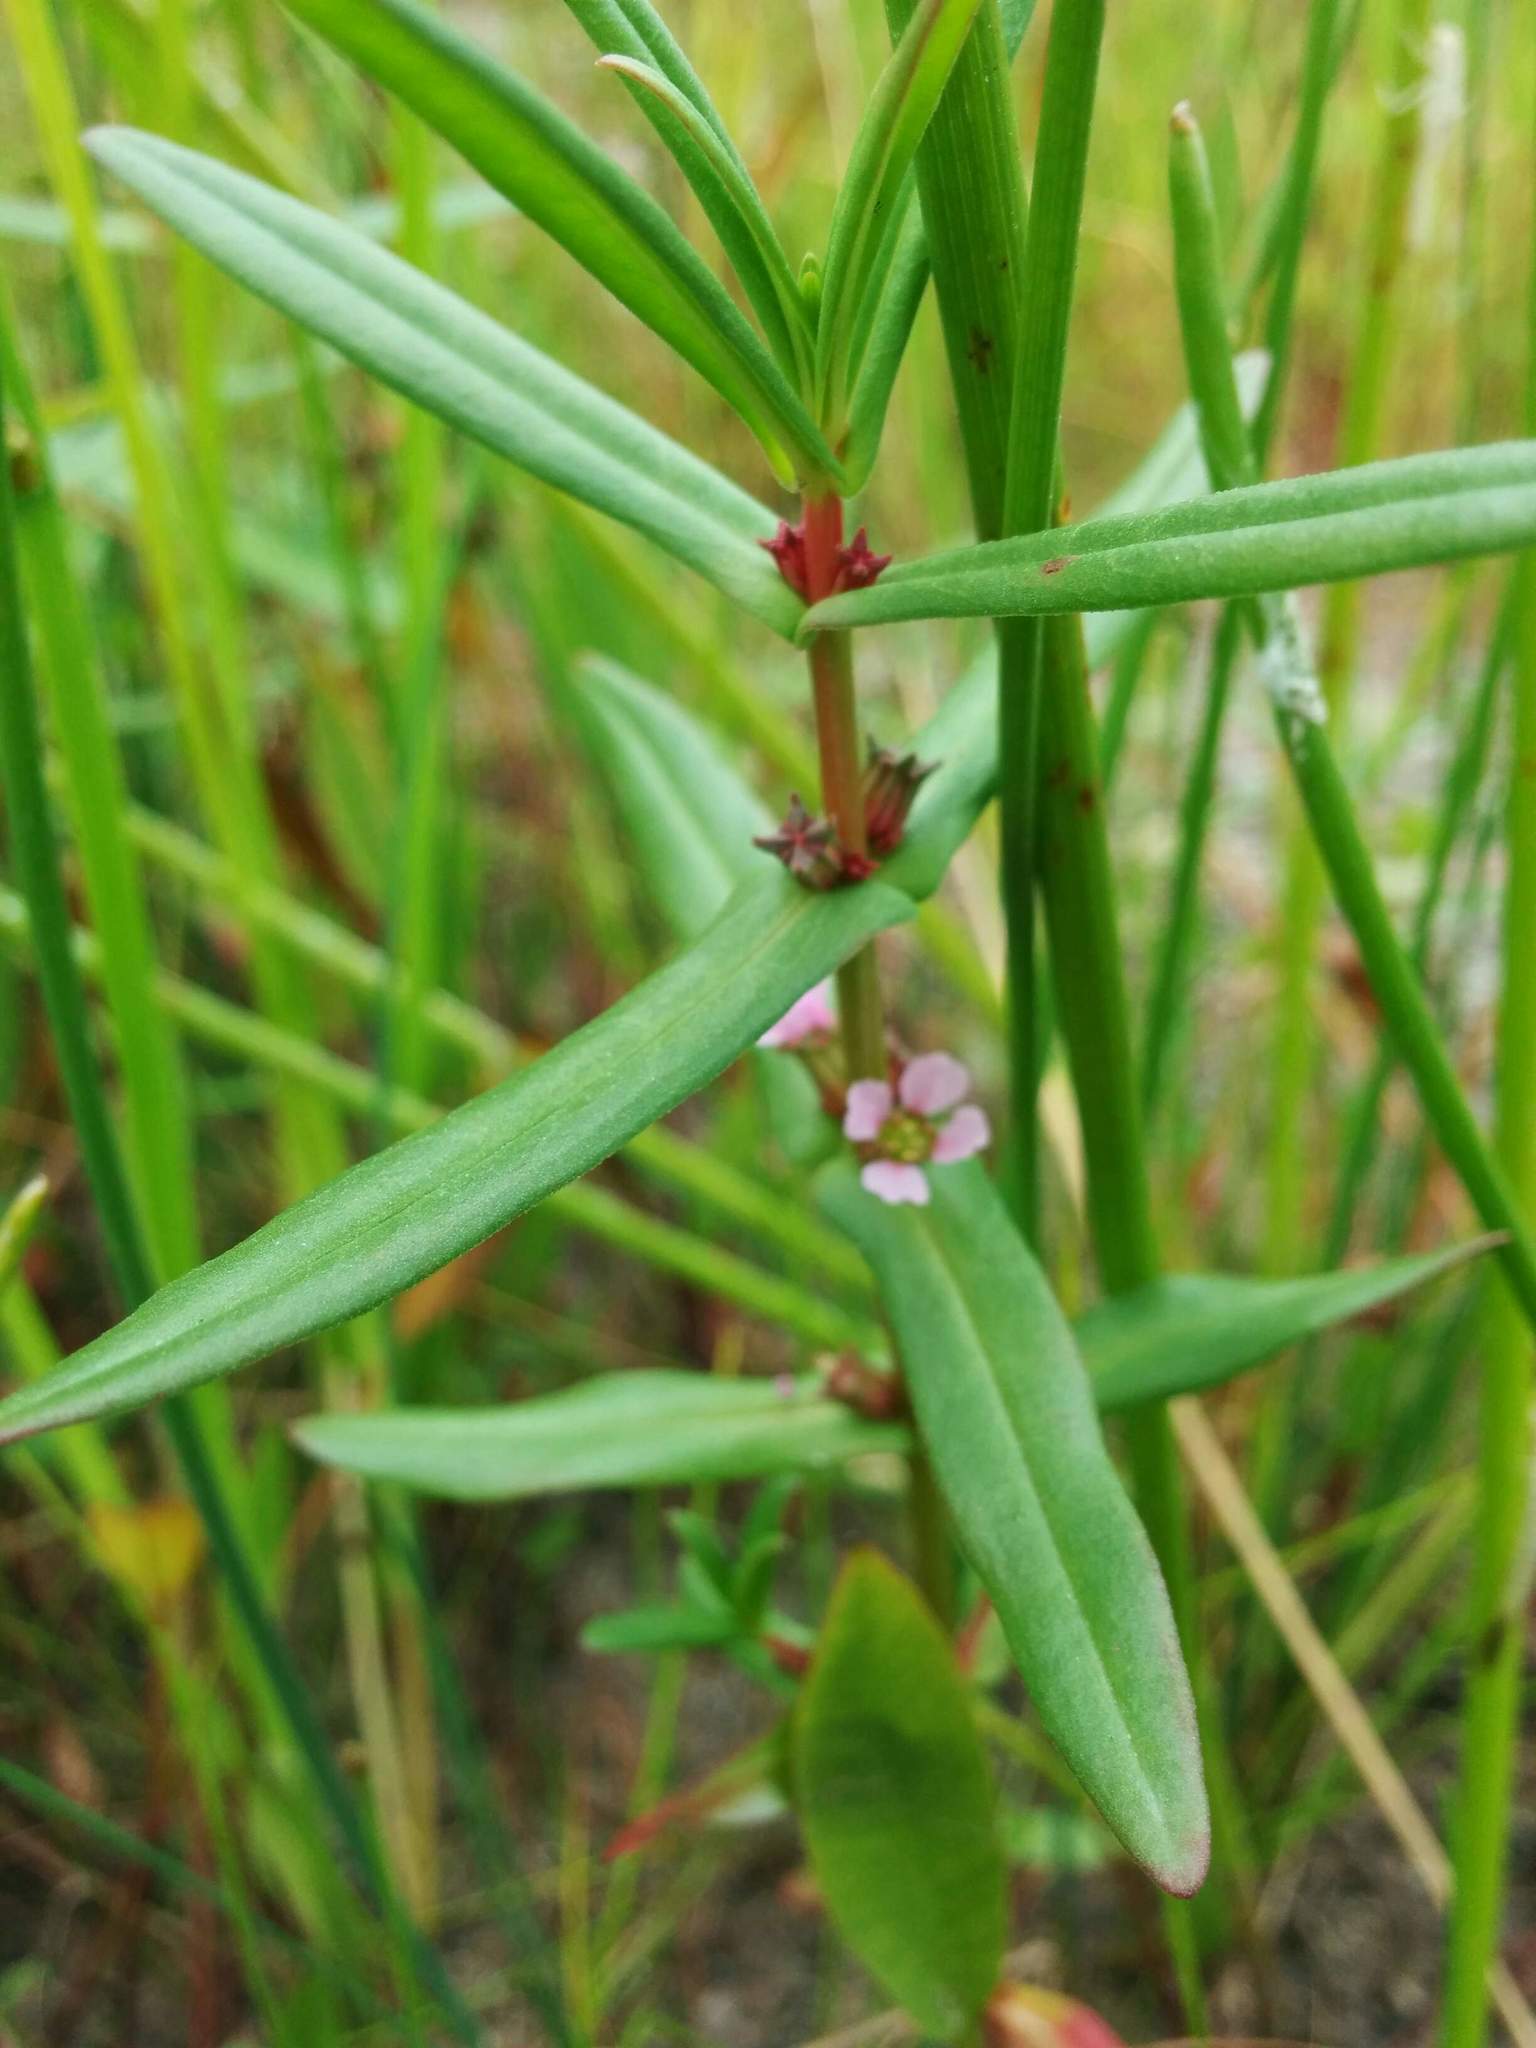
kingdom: Plantae
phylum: Tracheophyta
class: Magnoliopsida
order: Myrtales
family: Lythraceae
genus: Ammannia
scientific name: Ammannia coccinea
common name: Valley redstem
